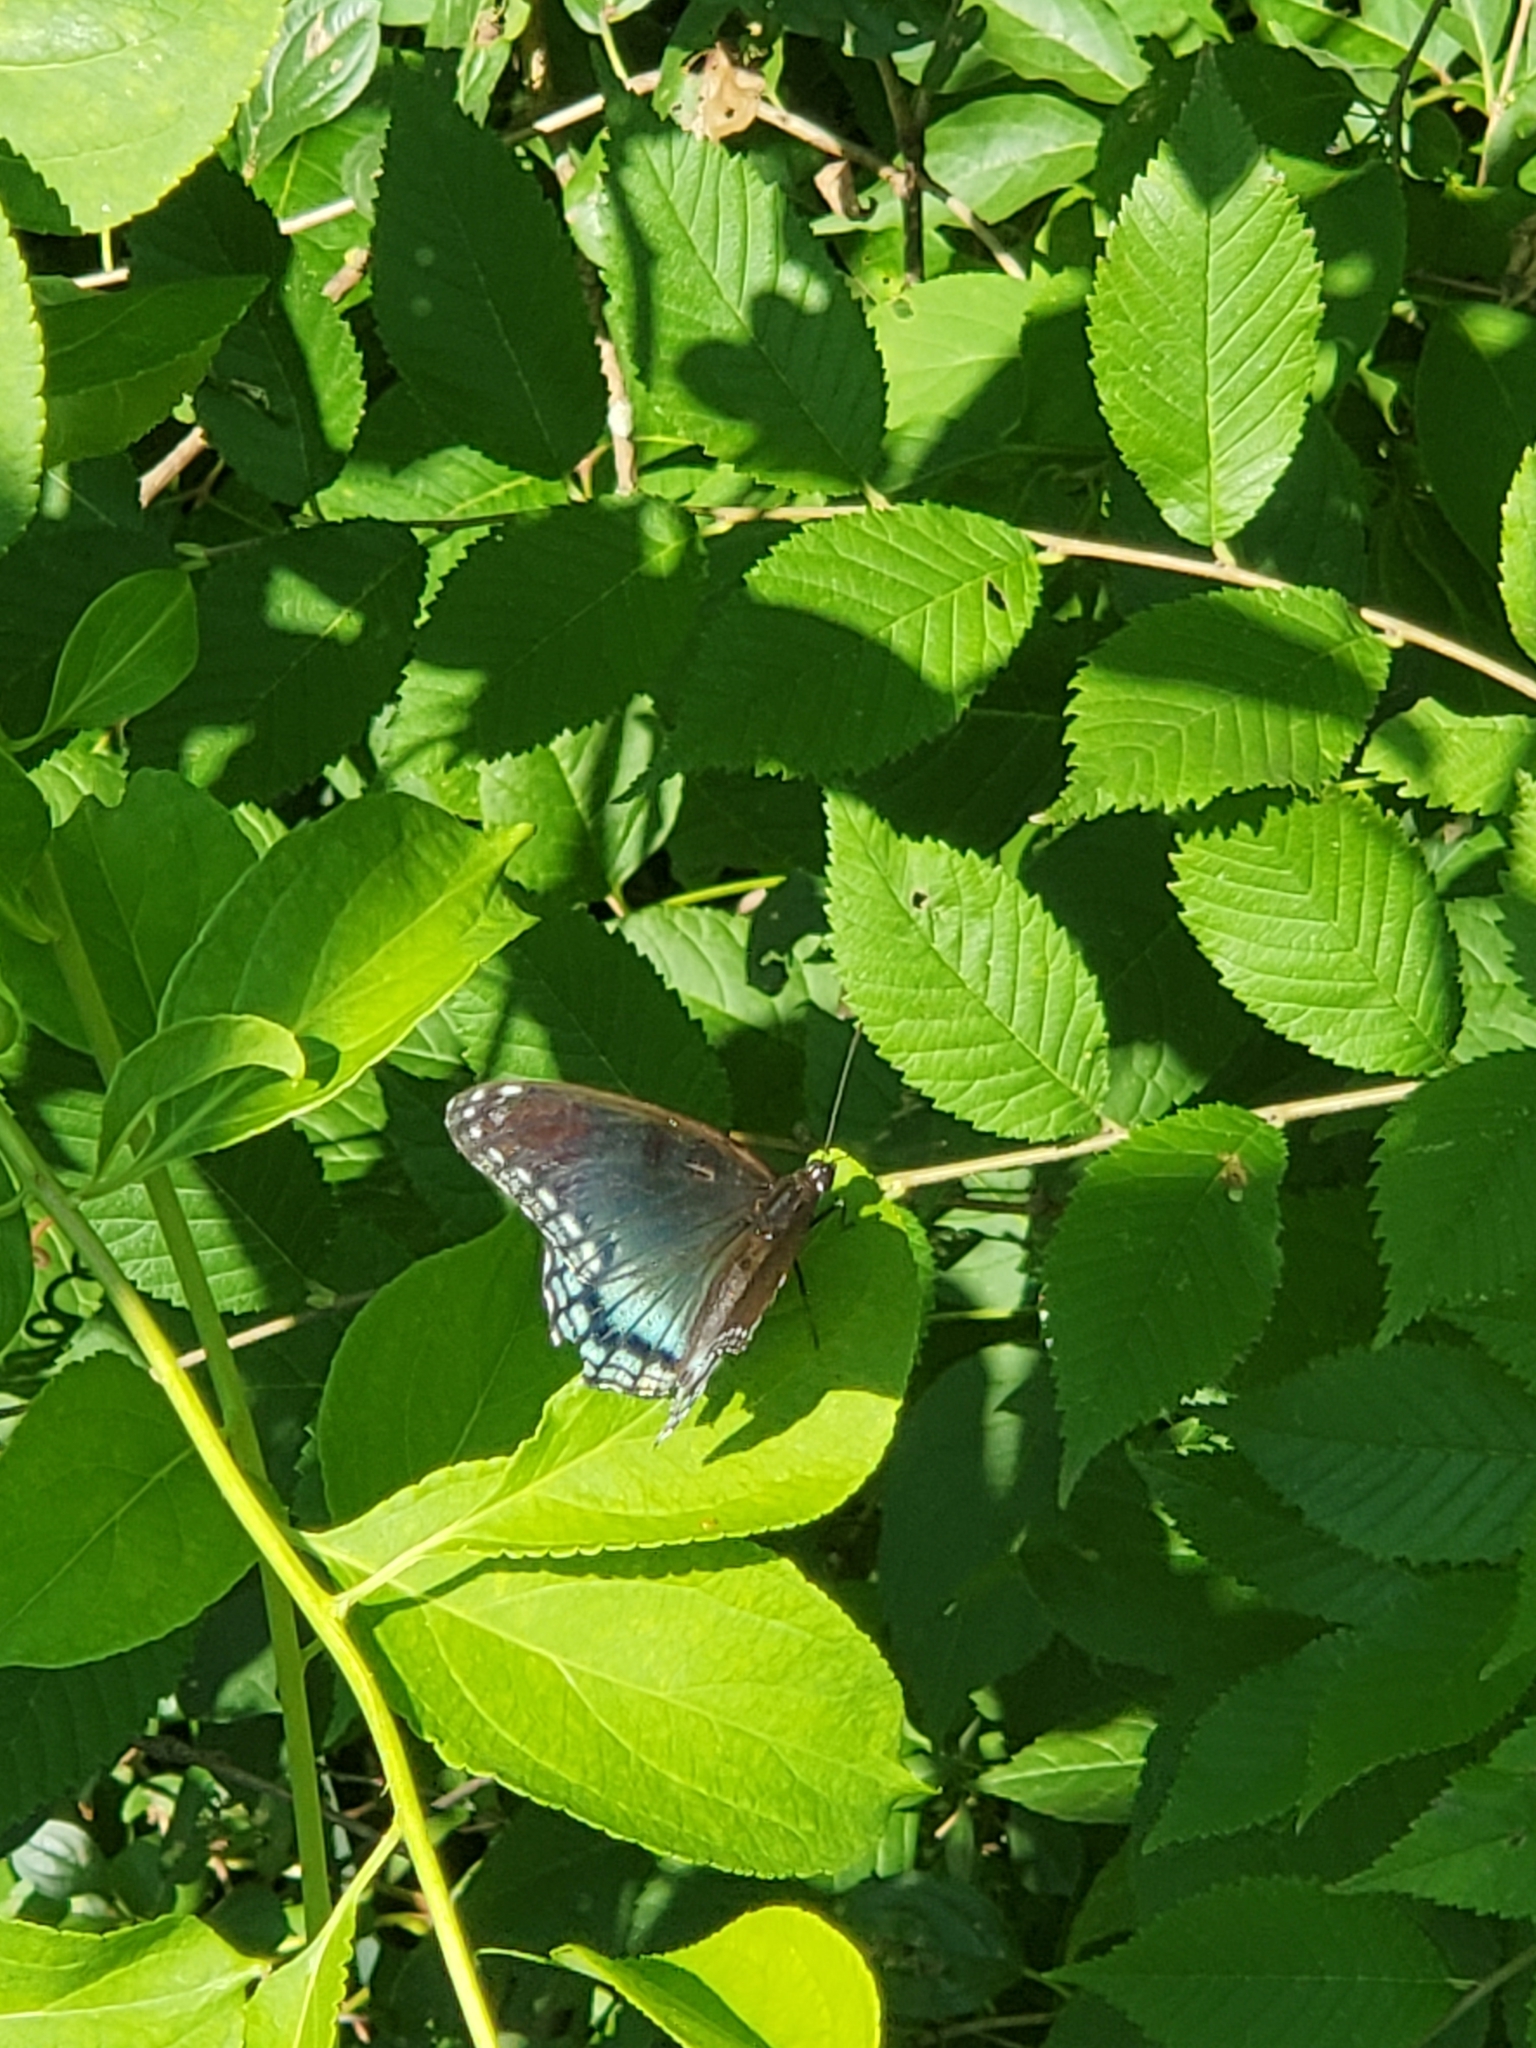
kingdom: Animalia
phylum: Arthropoda
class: Insecta
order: Lepidoptera
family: Nymphalidae
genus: Limenitis
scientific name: Limenitis astyanax
